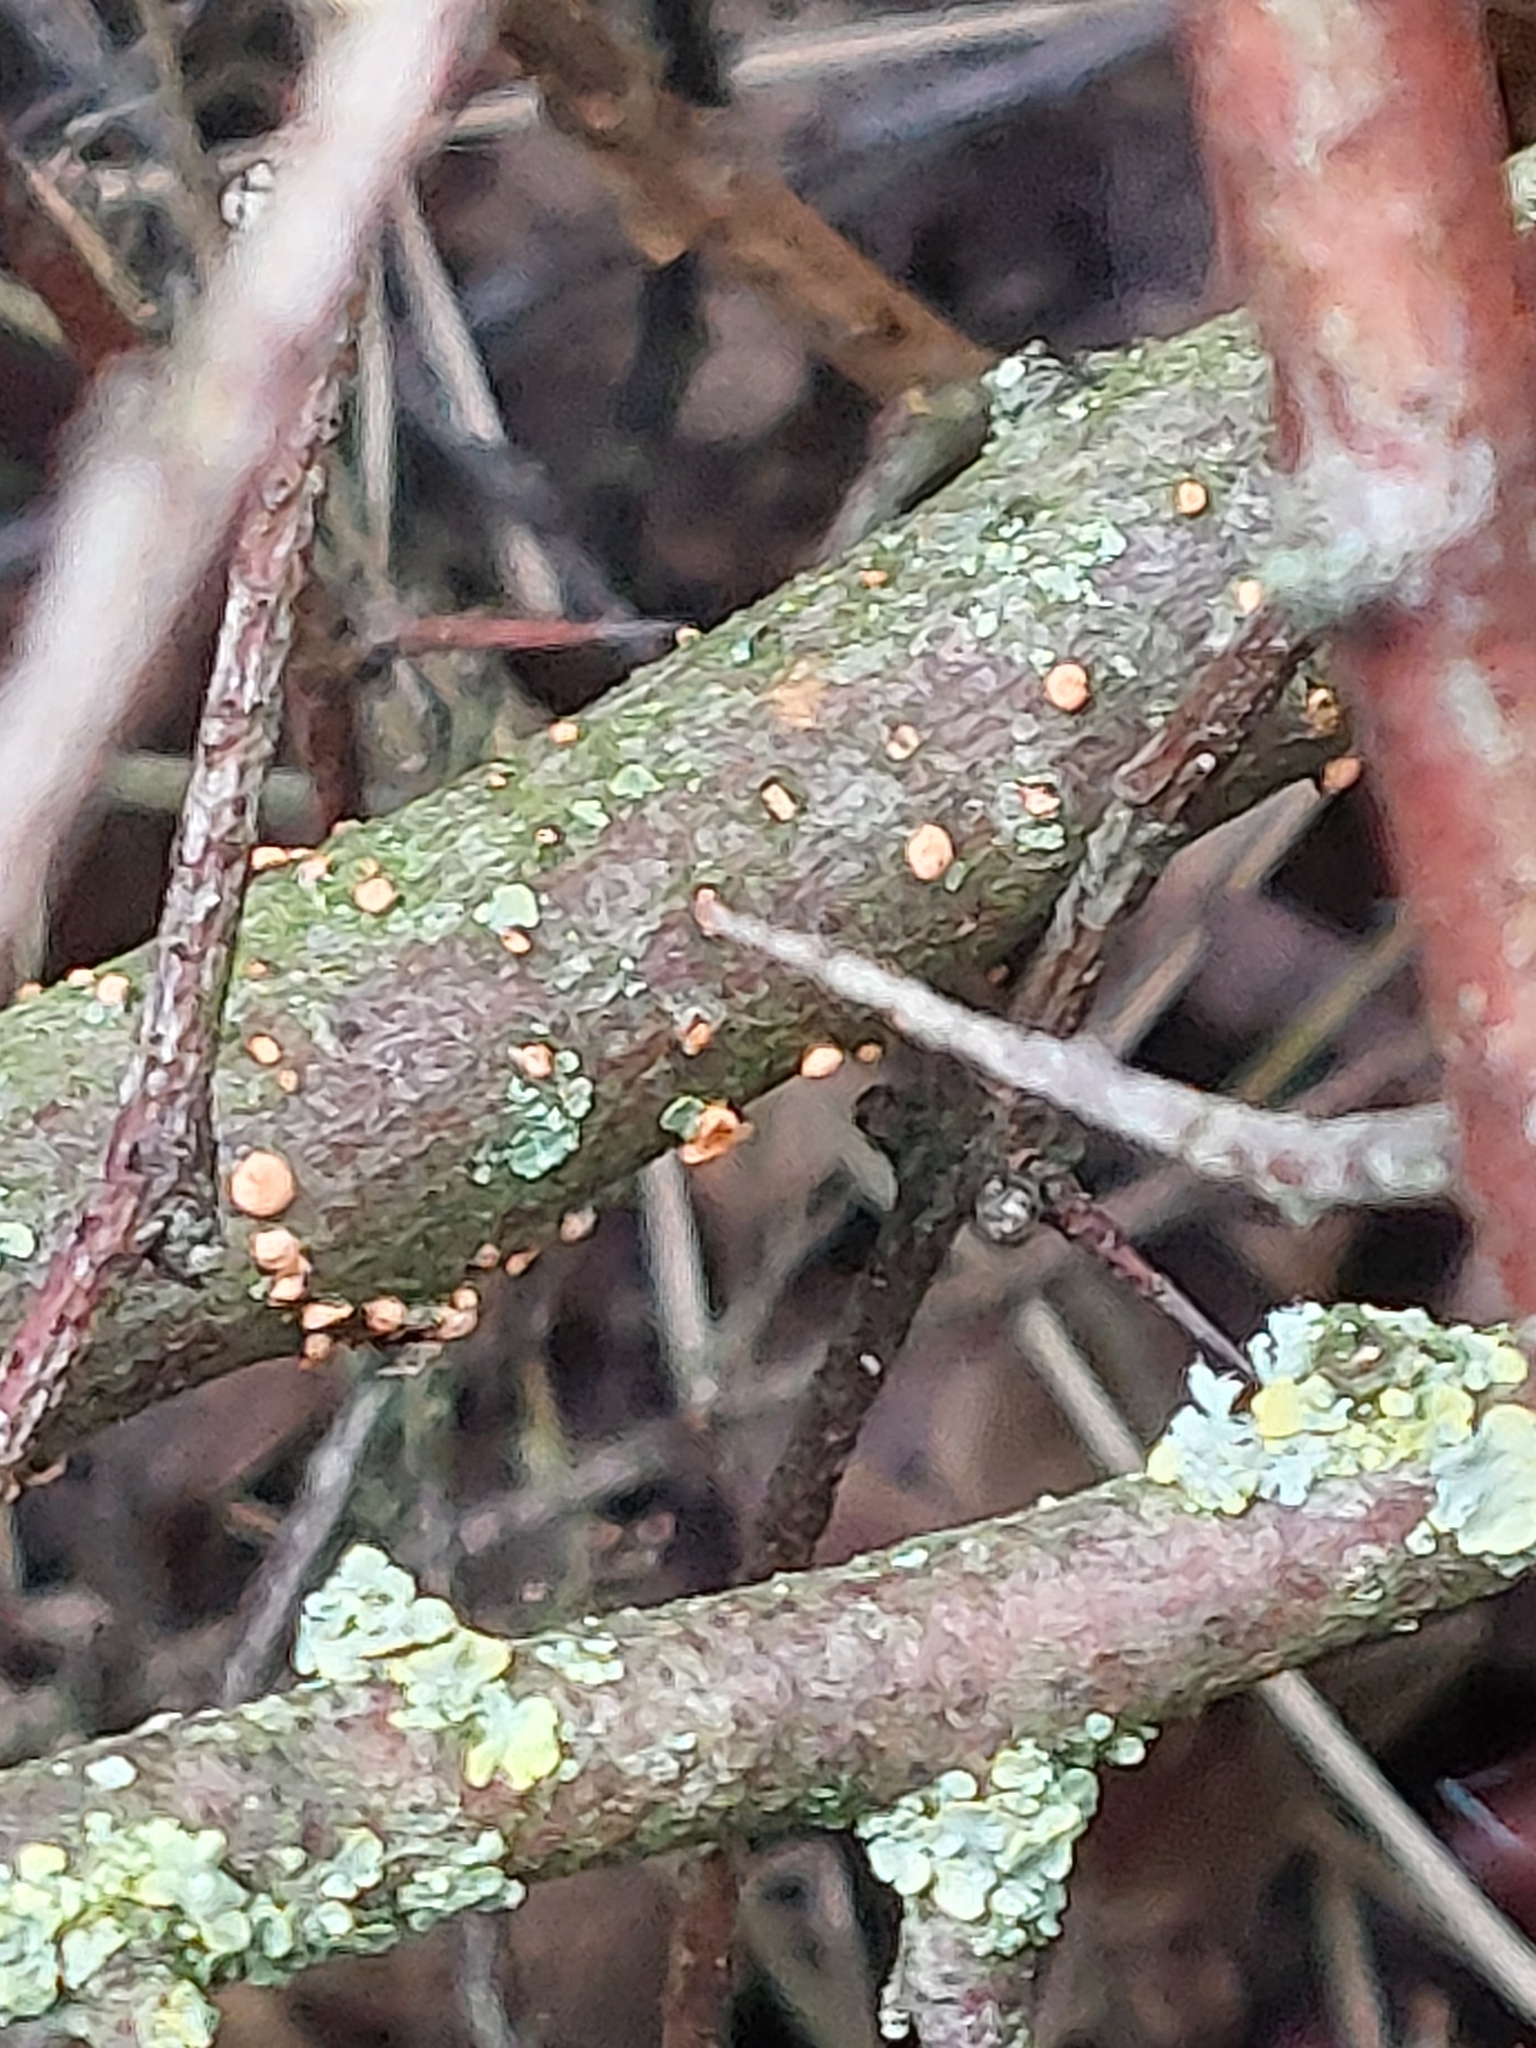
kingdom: Fungi
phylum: Ascomycota
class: Sordariomycetes
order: Hypocreales
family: Nectriaceae
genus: Nectria
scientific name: Nectria cinnabarina
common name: Coral spot
